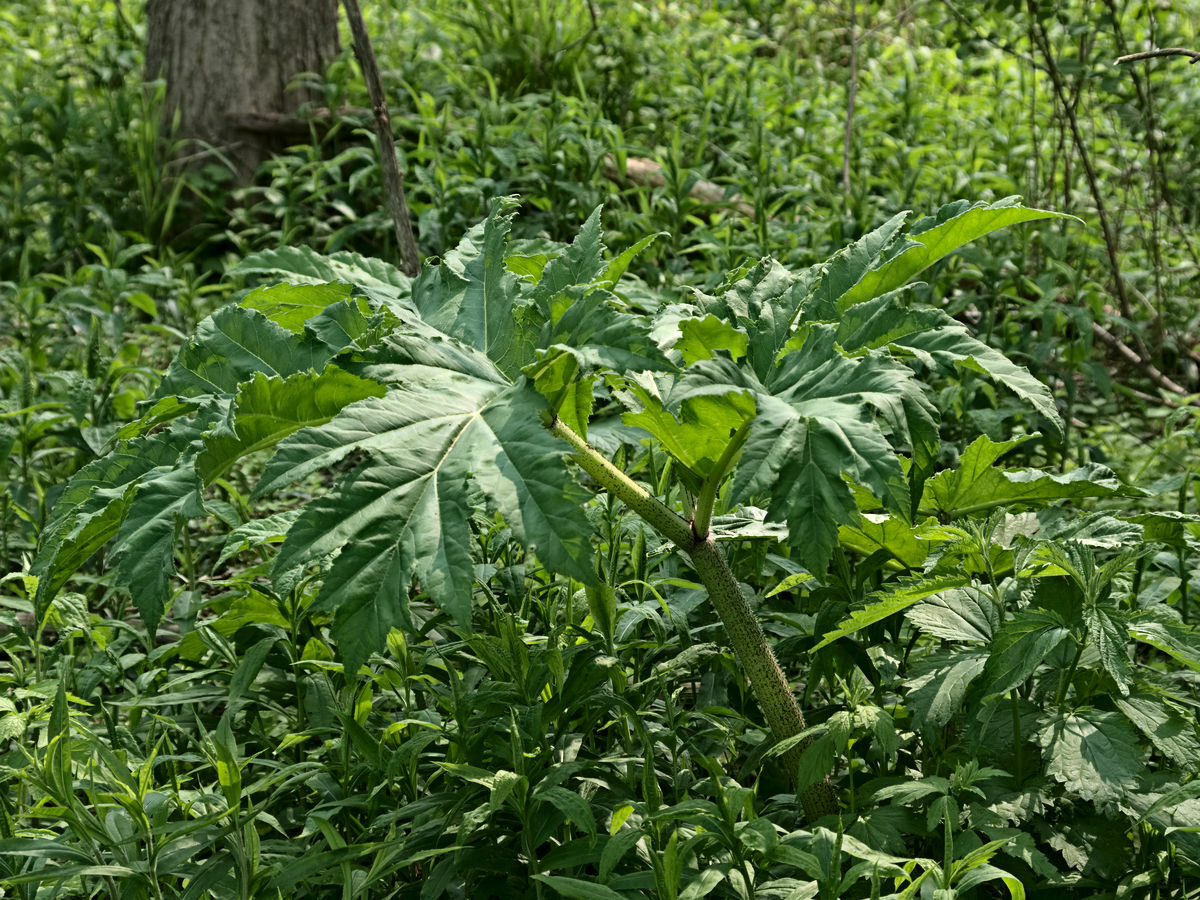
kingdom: Plantae
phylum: Tracheophyta
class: Magnoliopsida
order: Apiales
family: Apiaceae
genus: Heracleum
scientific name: Heracleum mantegazzianum
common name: Giant hogweed
